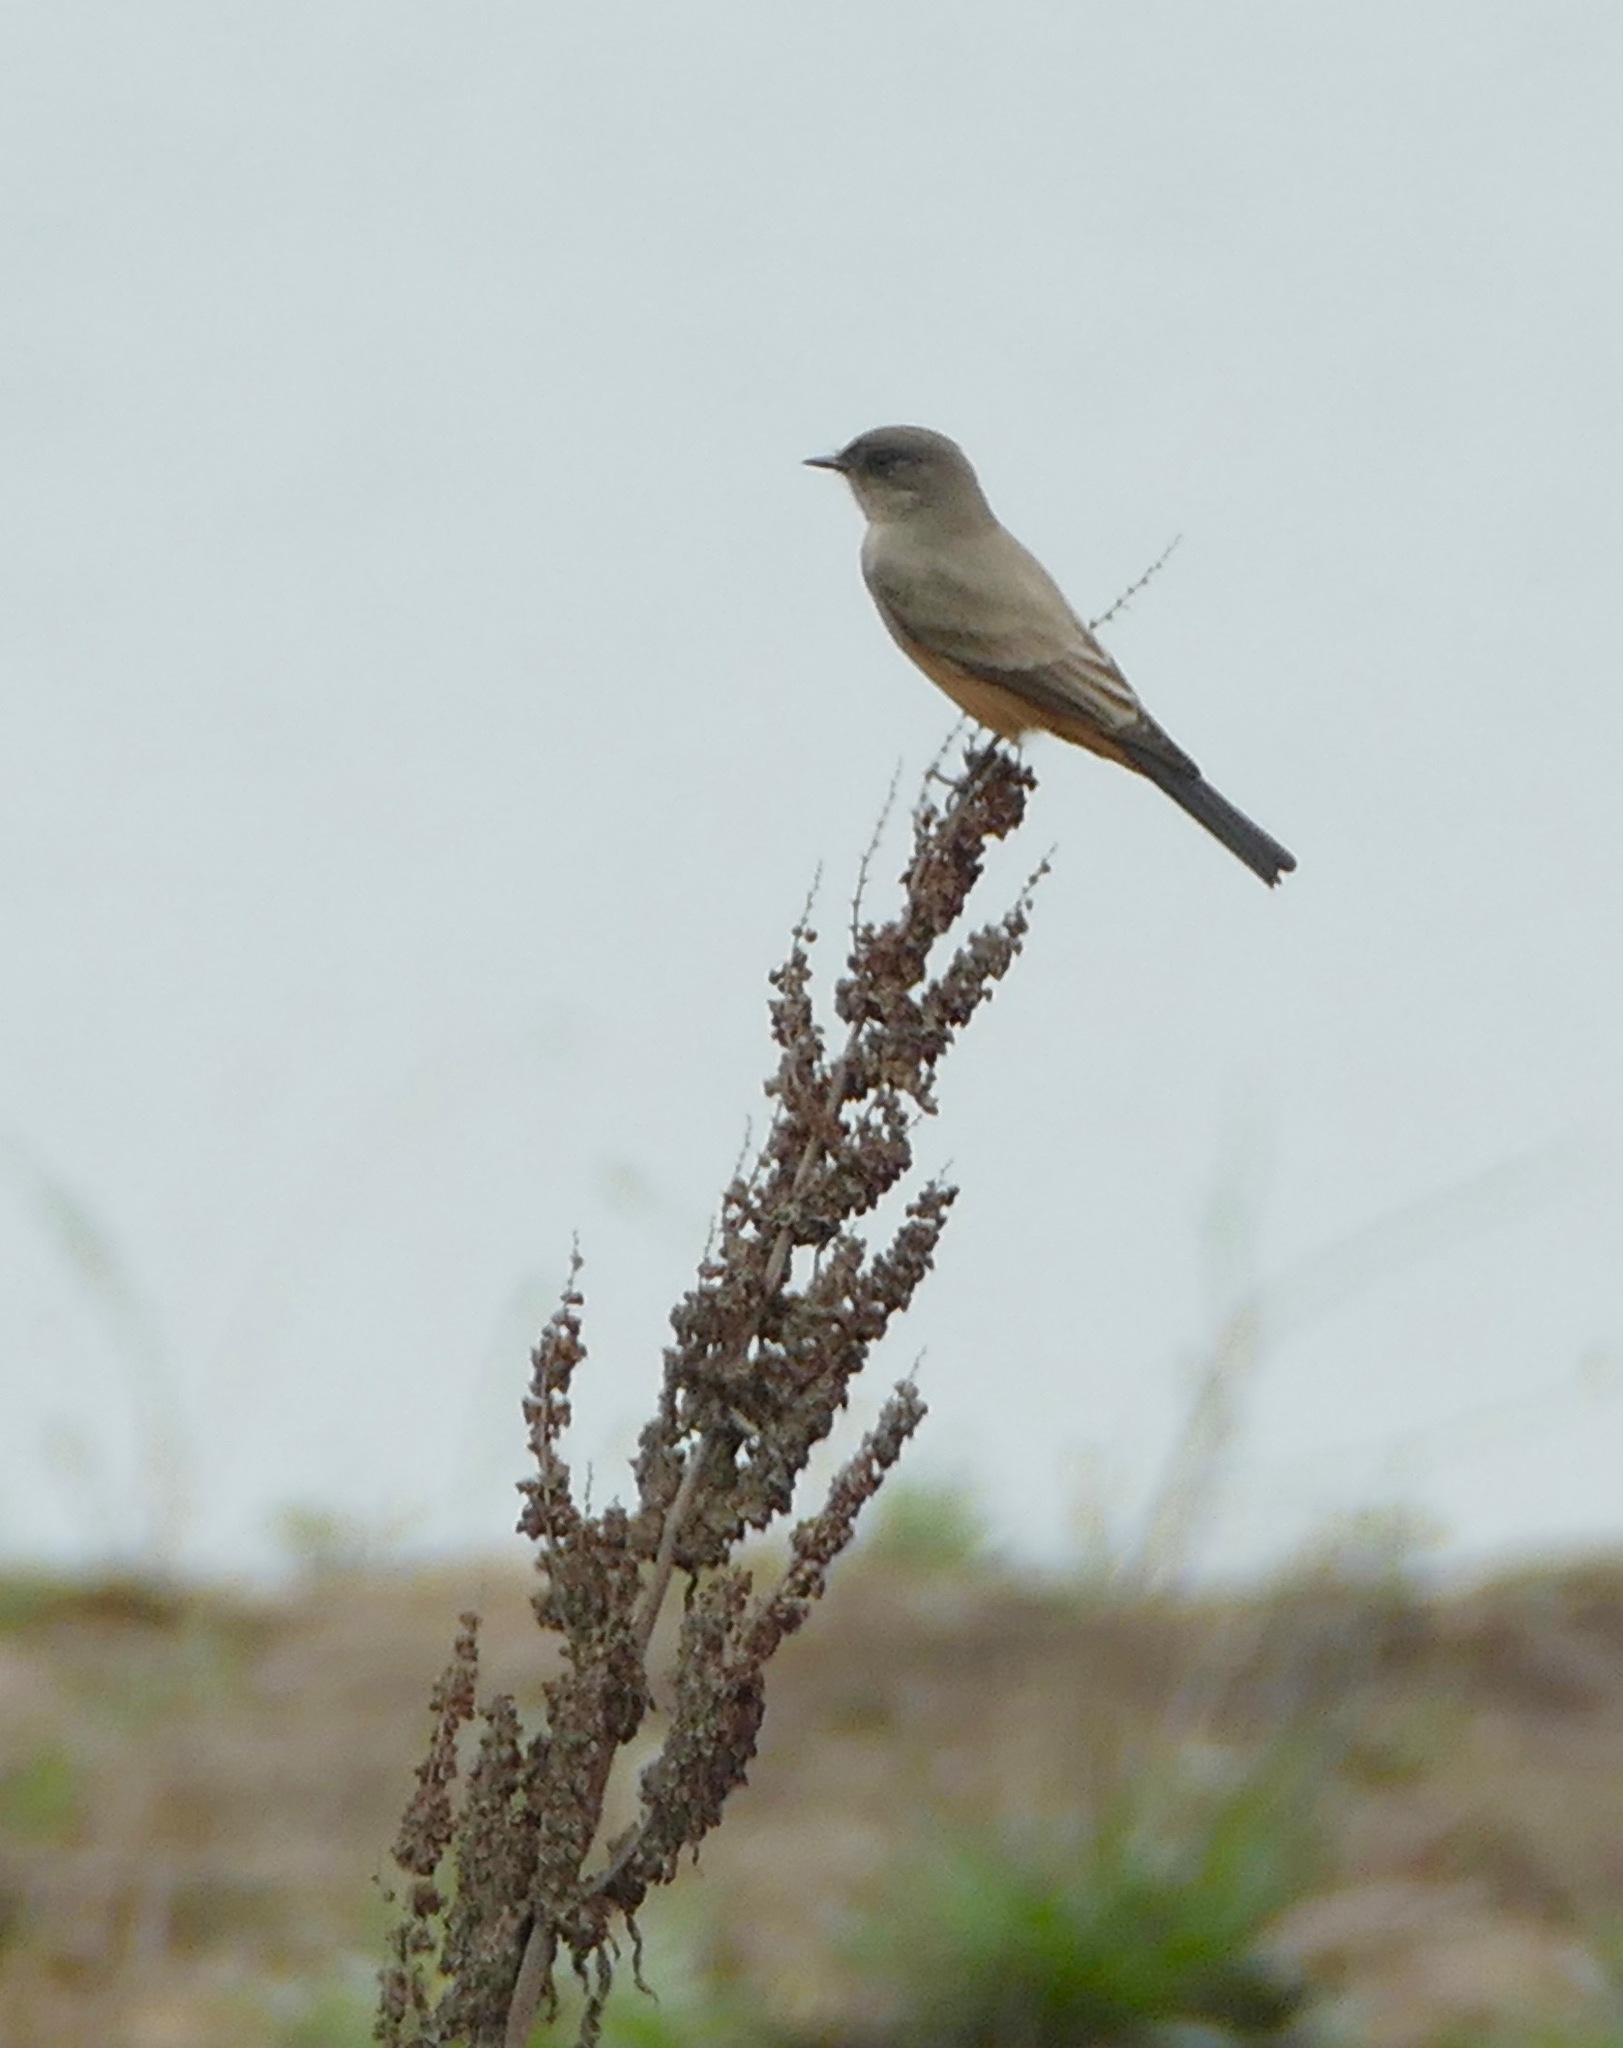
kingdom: Animalia
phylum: Chordata
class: Aves
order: Passeriformes
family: Tyrannidae
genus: Sayornis
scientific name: Sayornis saya
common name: Say's phoebe
